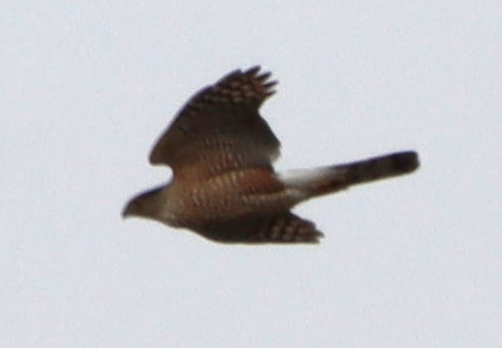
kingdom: Animalia
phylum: Chordata
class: Aves
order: Accipitriformes
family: Accipitridae
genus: Accipiter
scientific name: Accipiter cooperii
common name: Cooper's hawk
